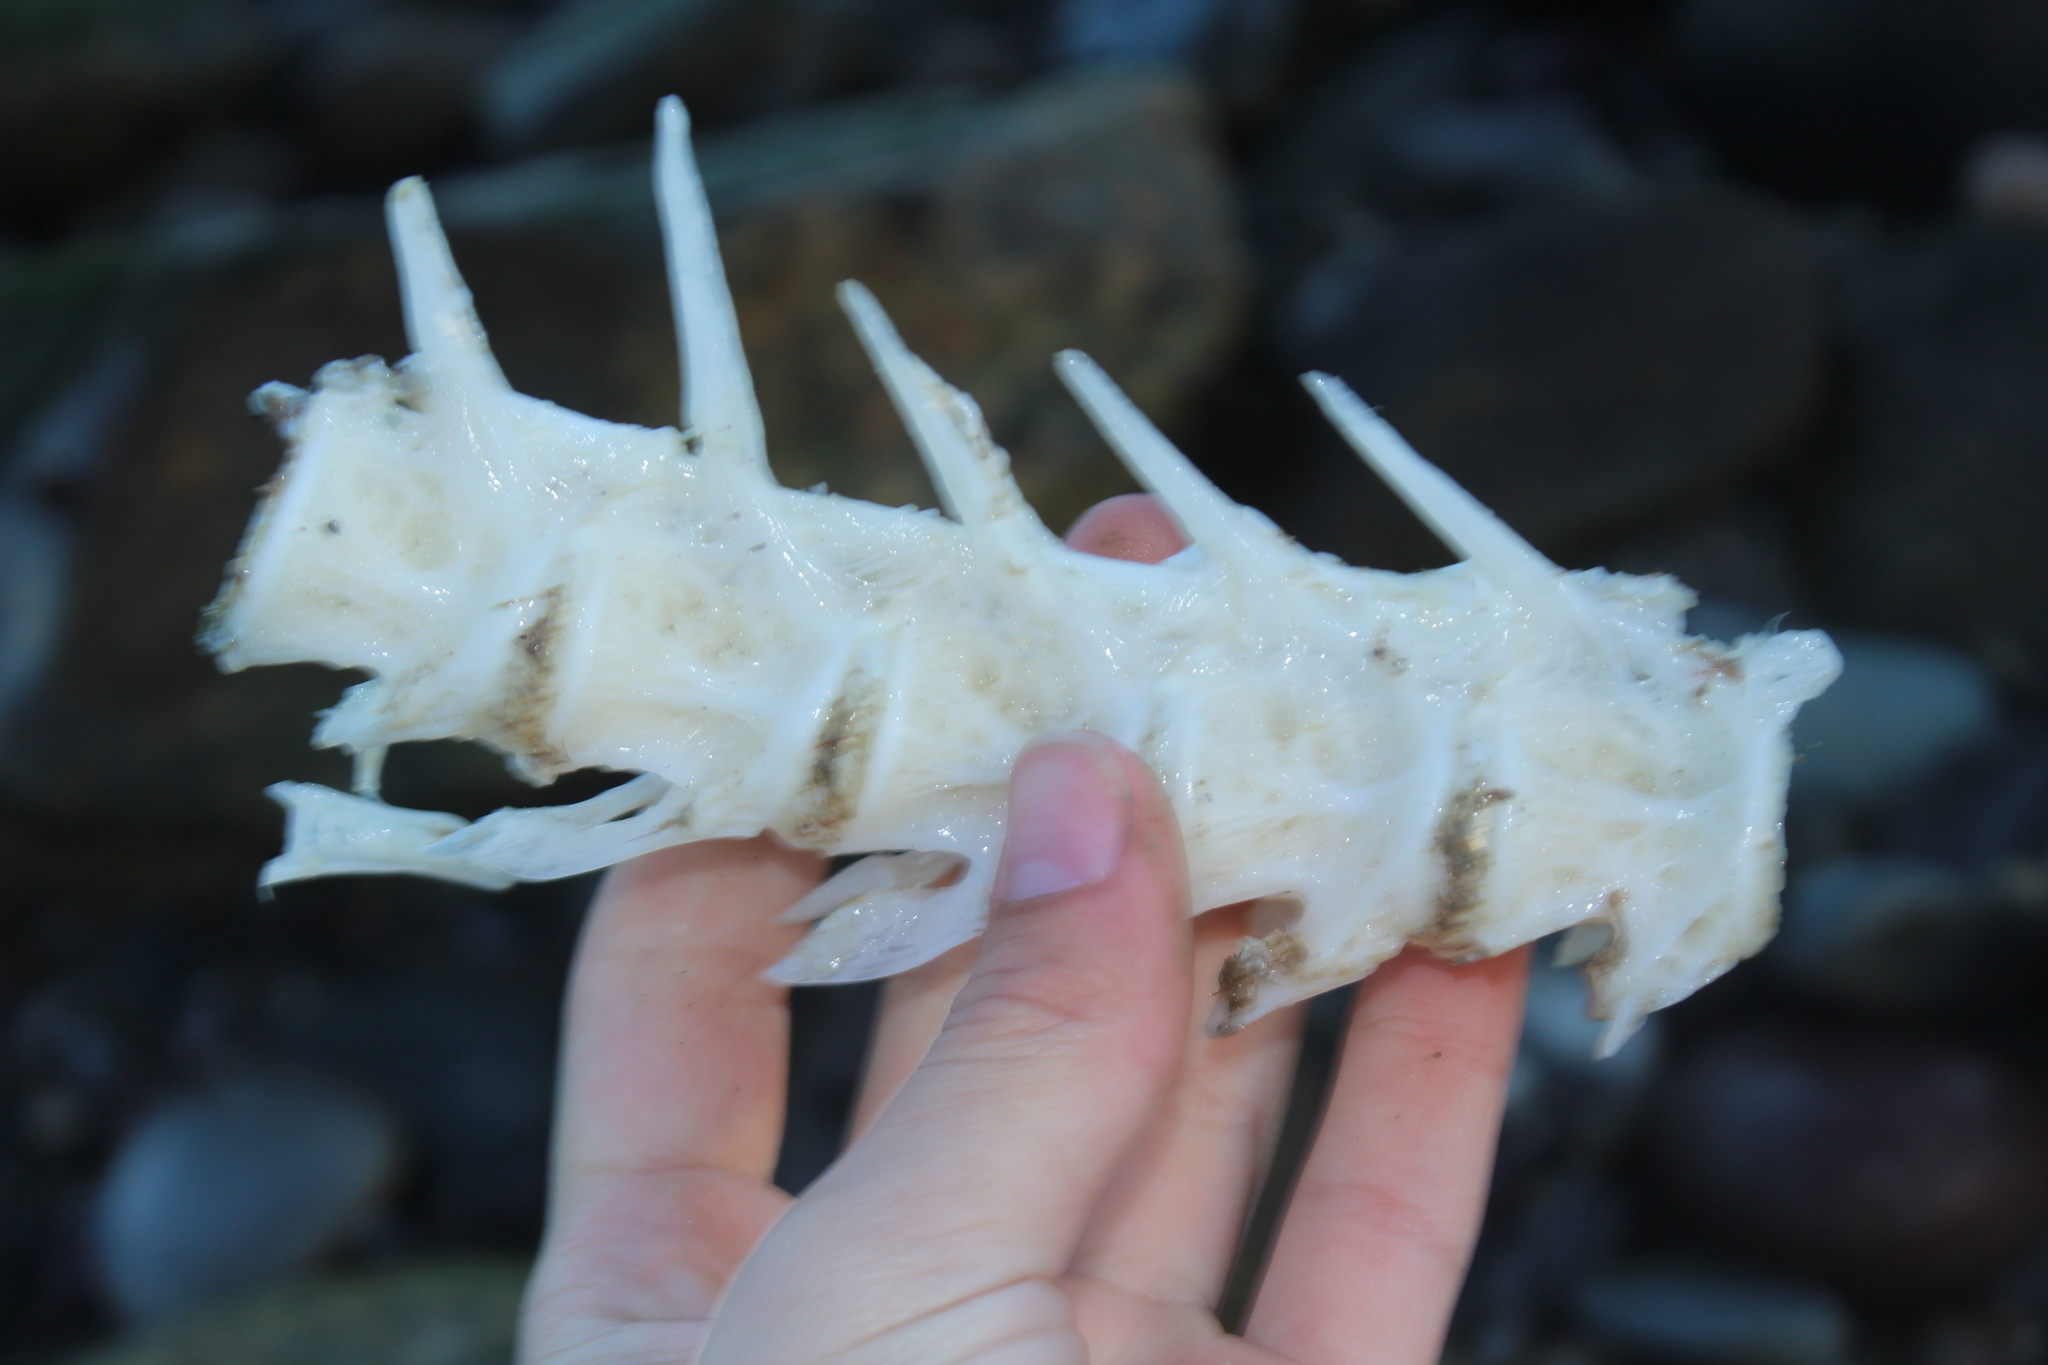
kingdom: Animalia
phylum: Chordata
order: Perciformes
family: Moronidae
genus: Morone
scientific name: Morone saxatilis
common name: Striped bass
